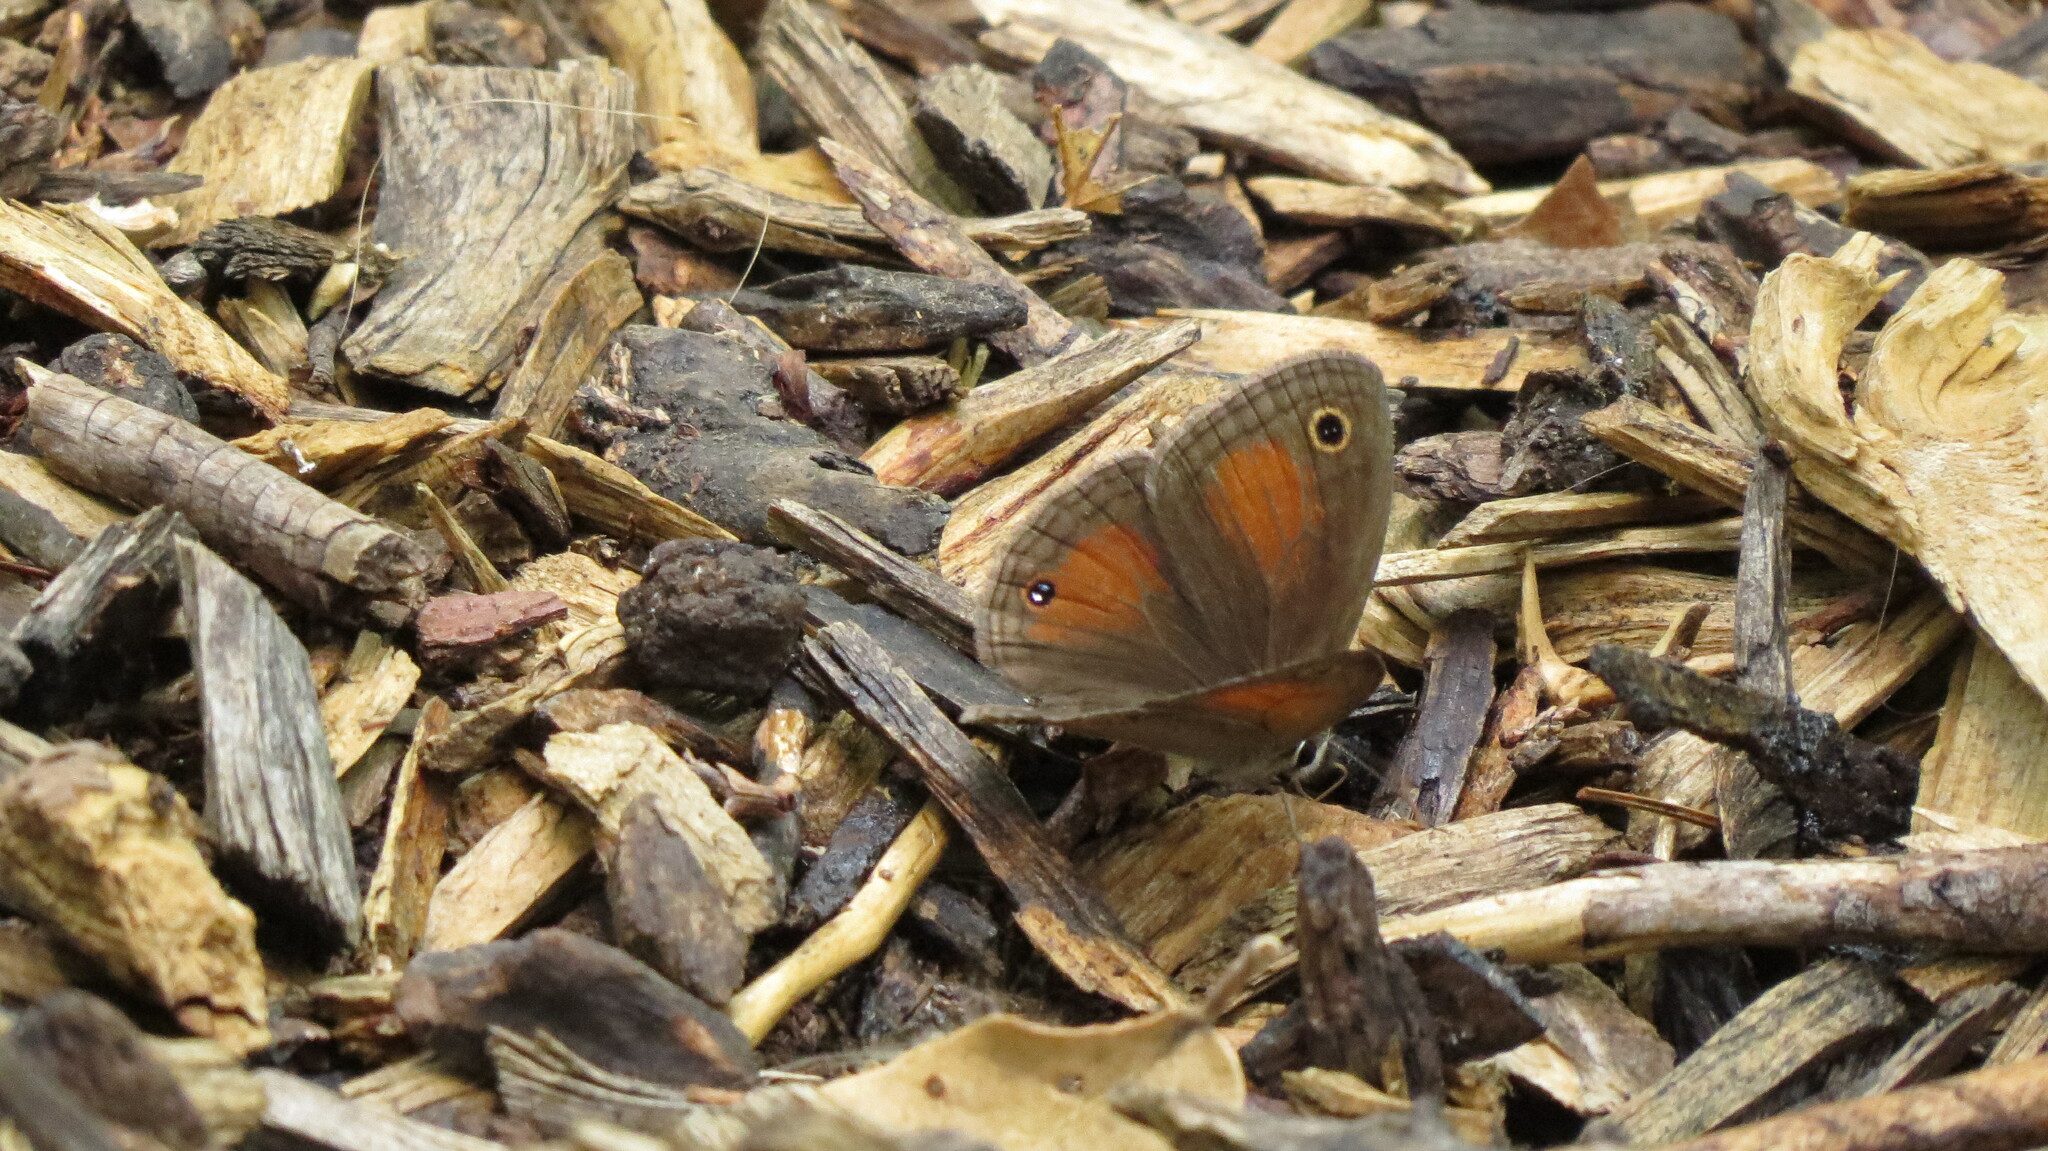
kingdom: Animalia
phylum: Arthropoda
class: Insecta
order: Lepidoptera
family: Nymphalidae
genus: Euptychia
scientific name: Euptychia
